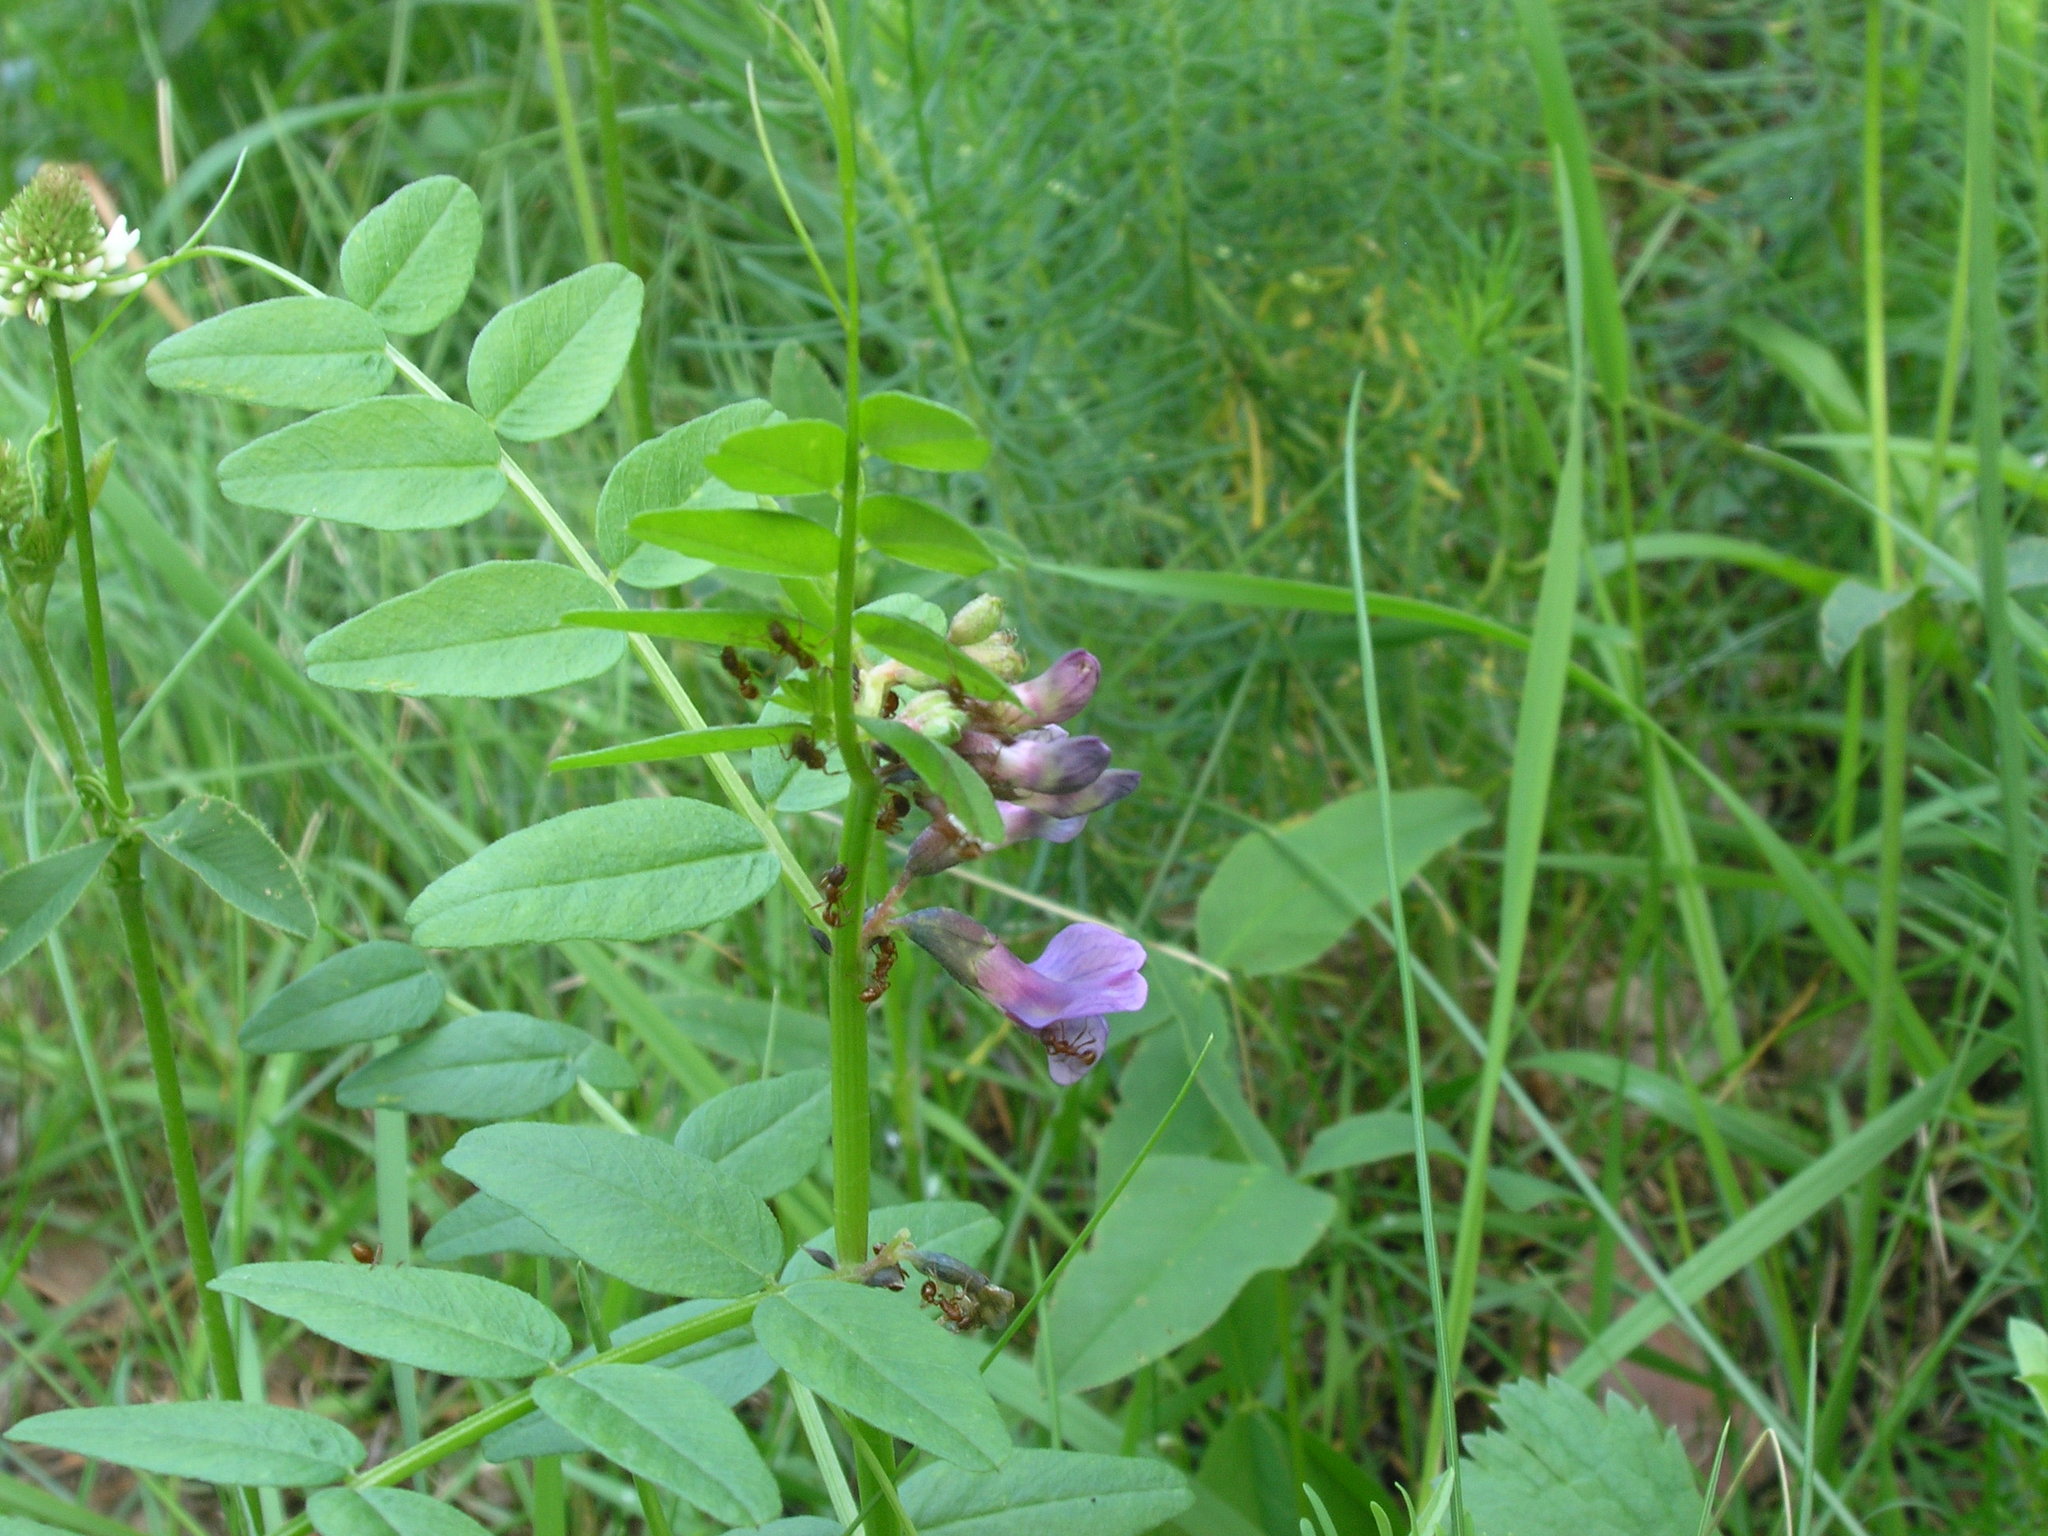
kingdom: Plantae
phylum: Tracheophyta
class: Magnoliopsida
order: Fabales
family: Fabaceae
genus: Vicia
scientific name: Vicia sepium
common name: Bush vetch
